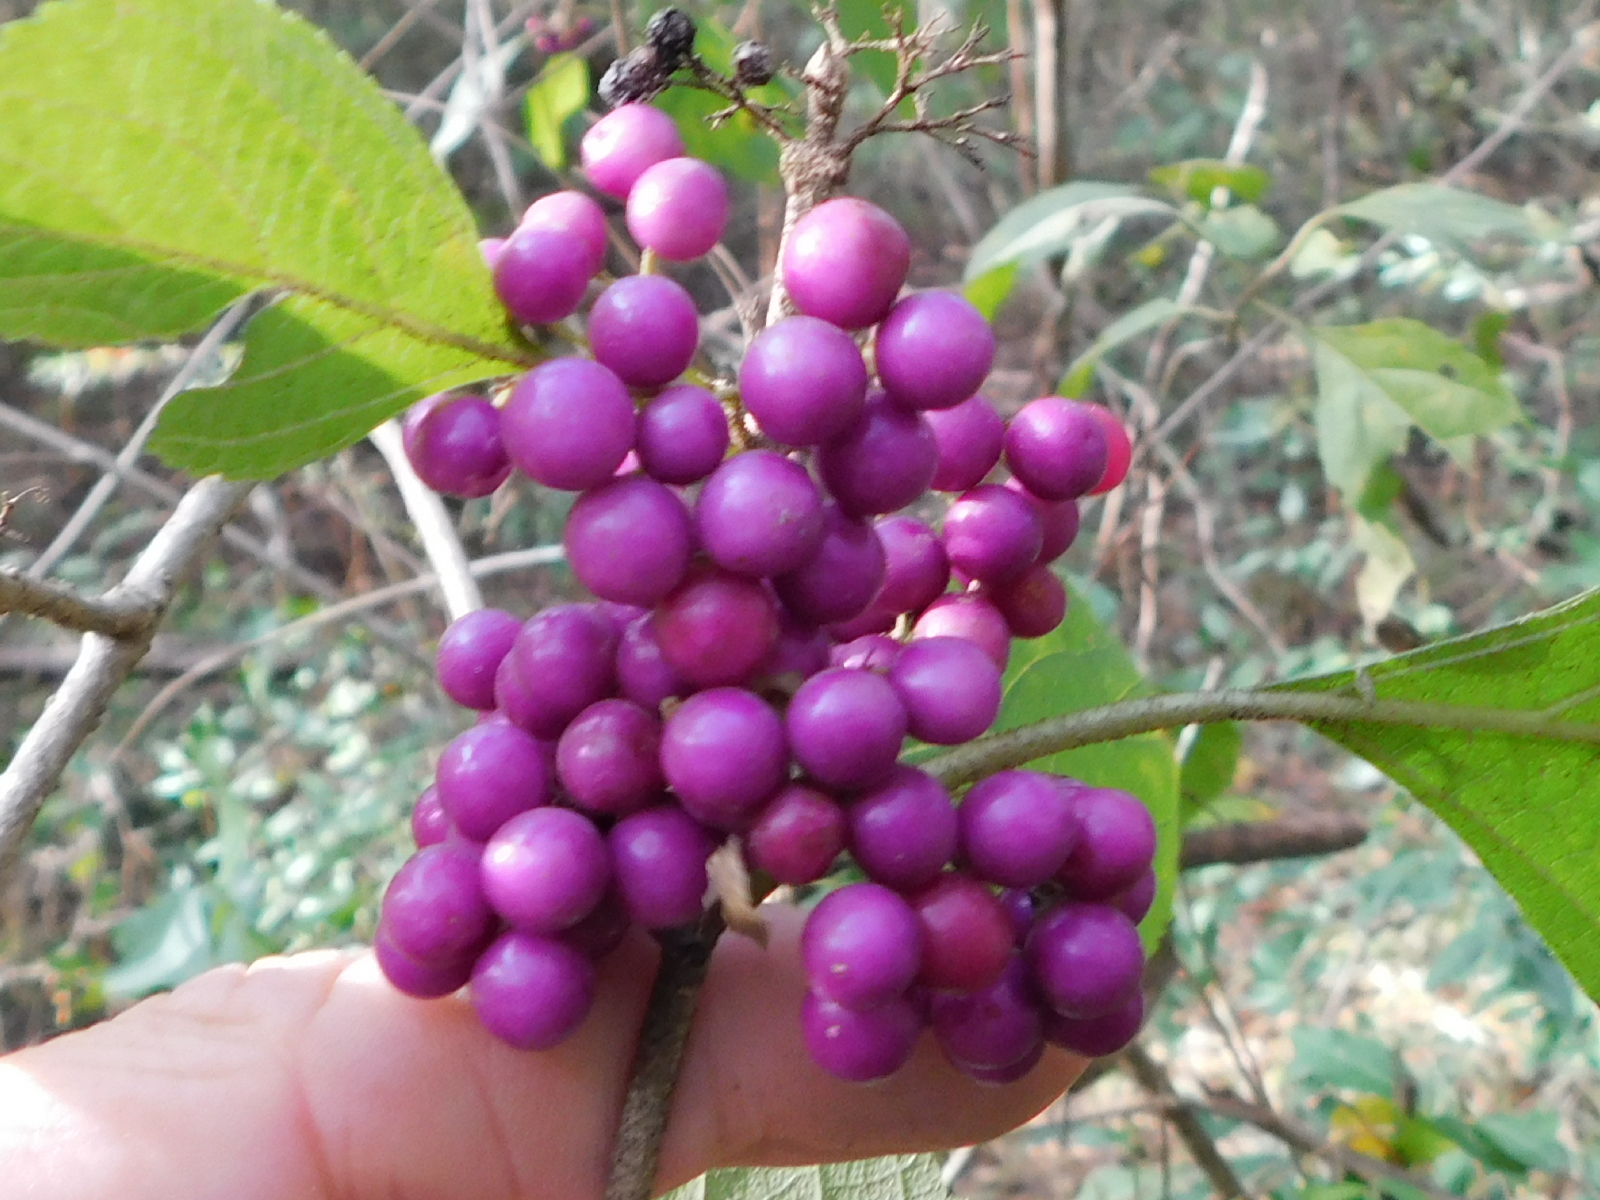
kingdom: Plantae
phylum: Tracheophyta
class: Magnoliopsida
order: Lamiales
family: Lamiaceae
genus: Callicarpa
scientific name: Callicarpa americana
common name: American beautyberry
